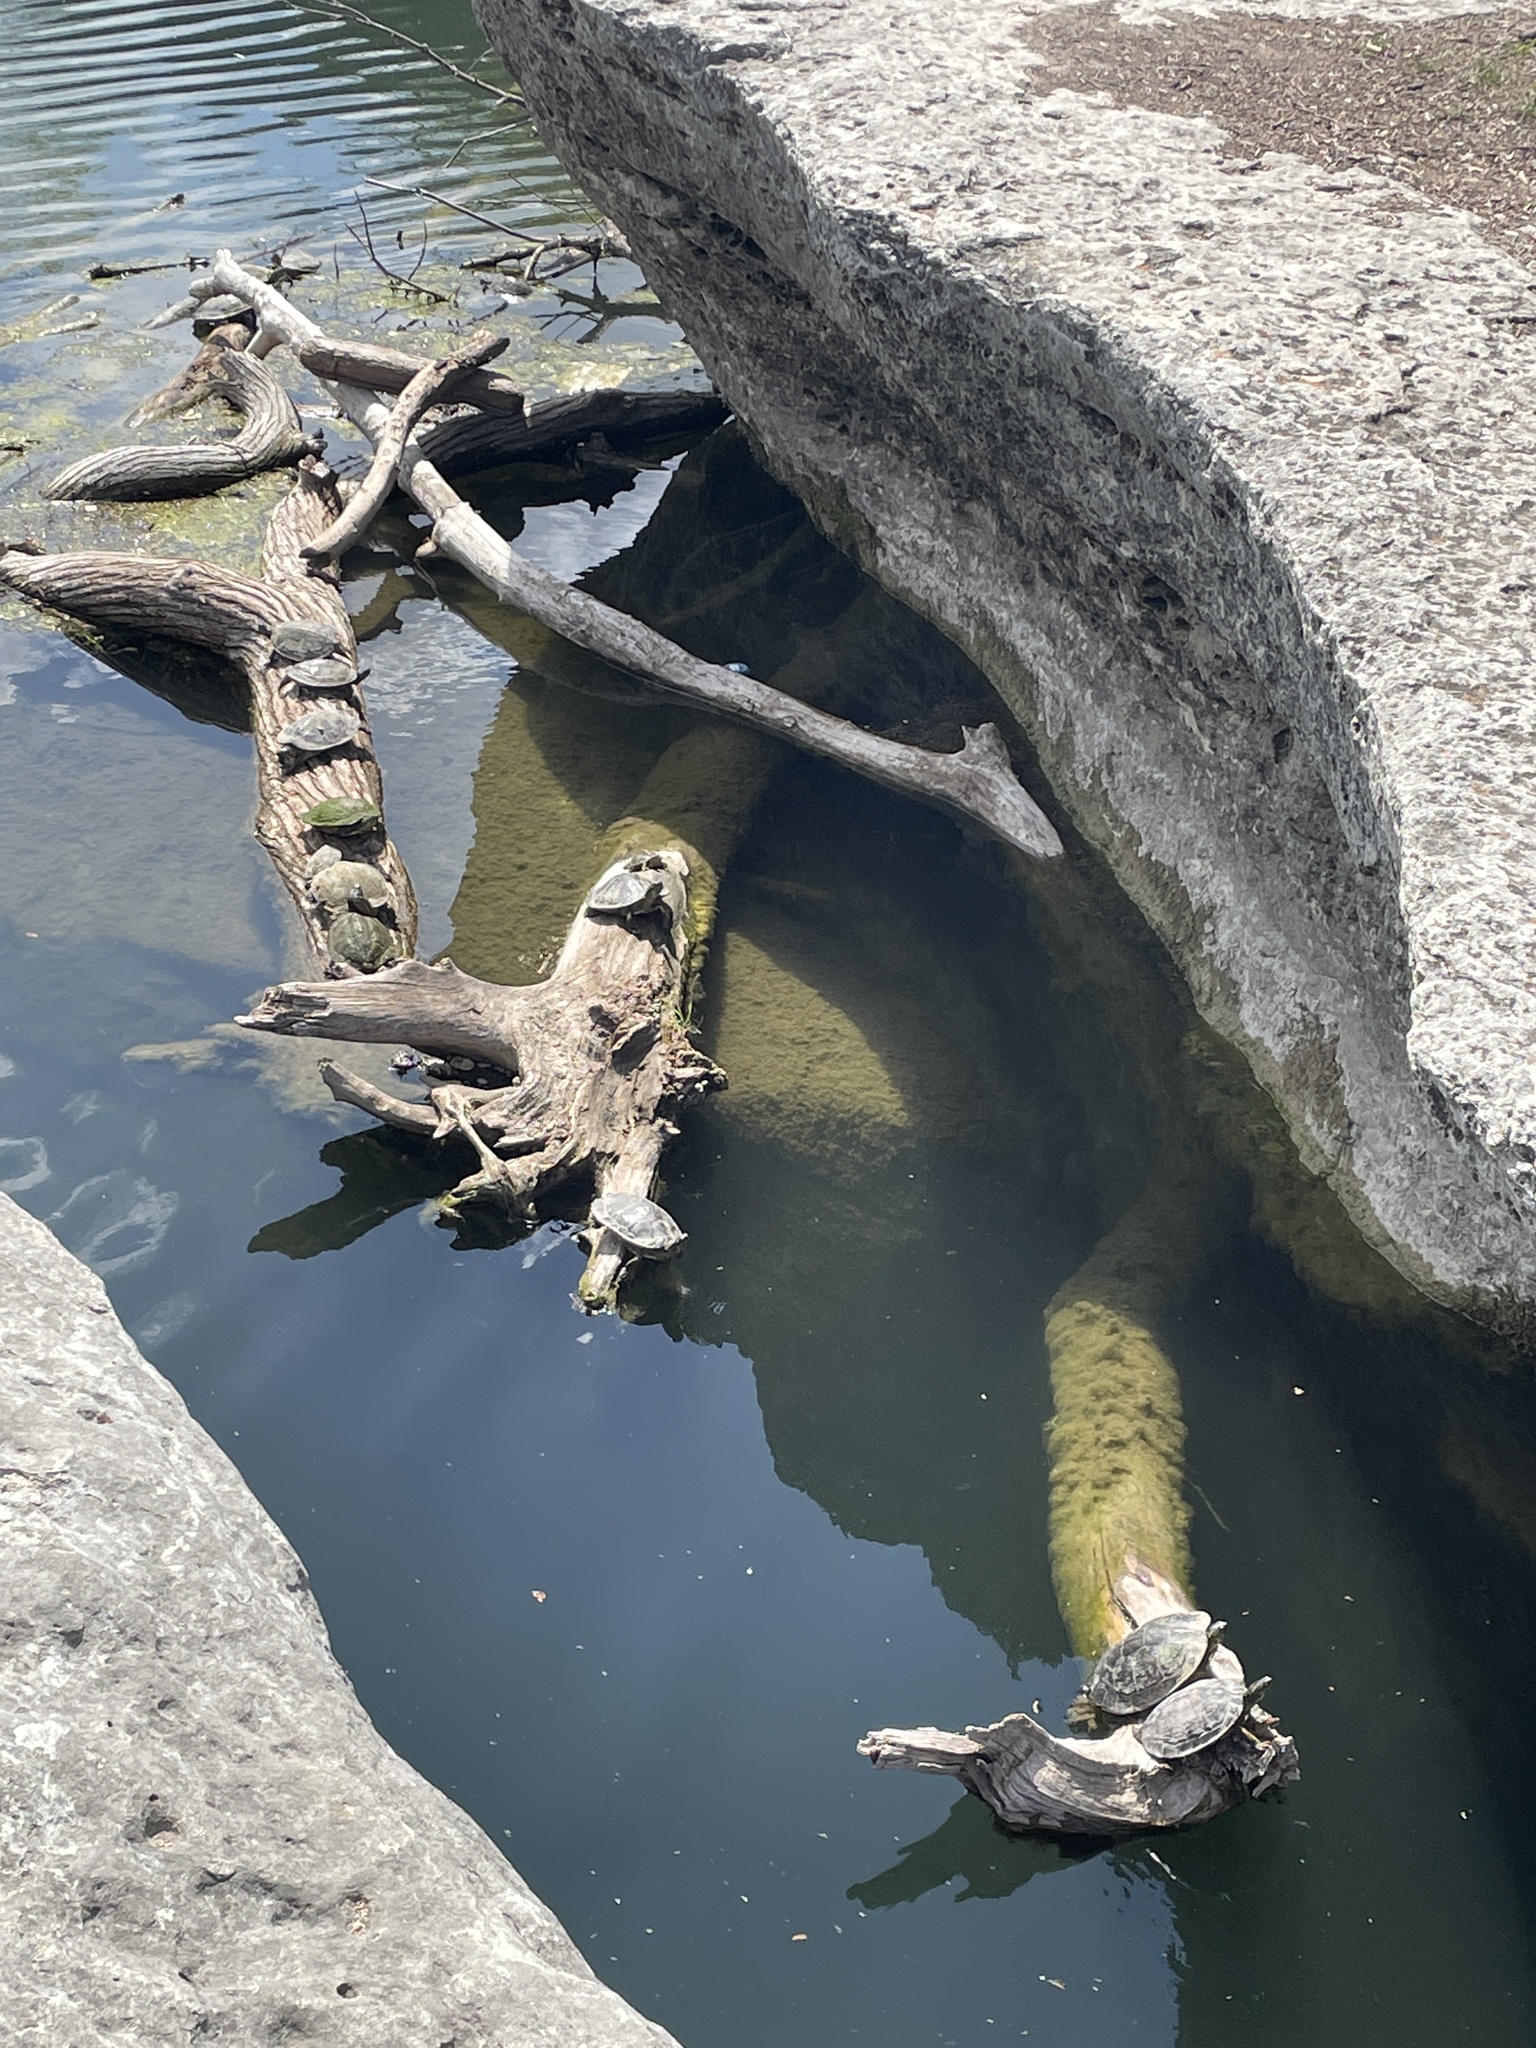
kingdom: Animalia
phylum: Chordata
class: Testudines
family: Emydidae
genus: Pseudemys
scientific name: Pseudemys texana
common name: Texas river cooter
